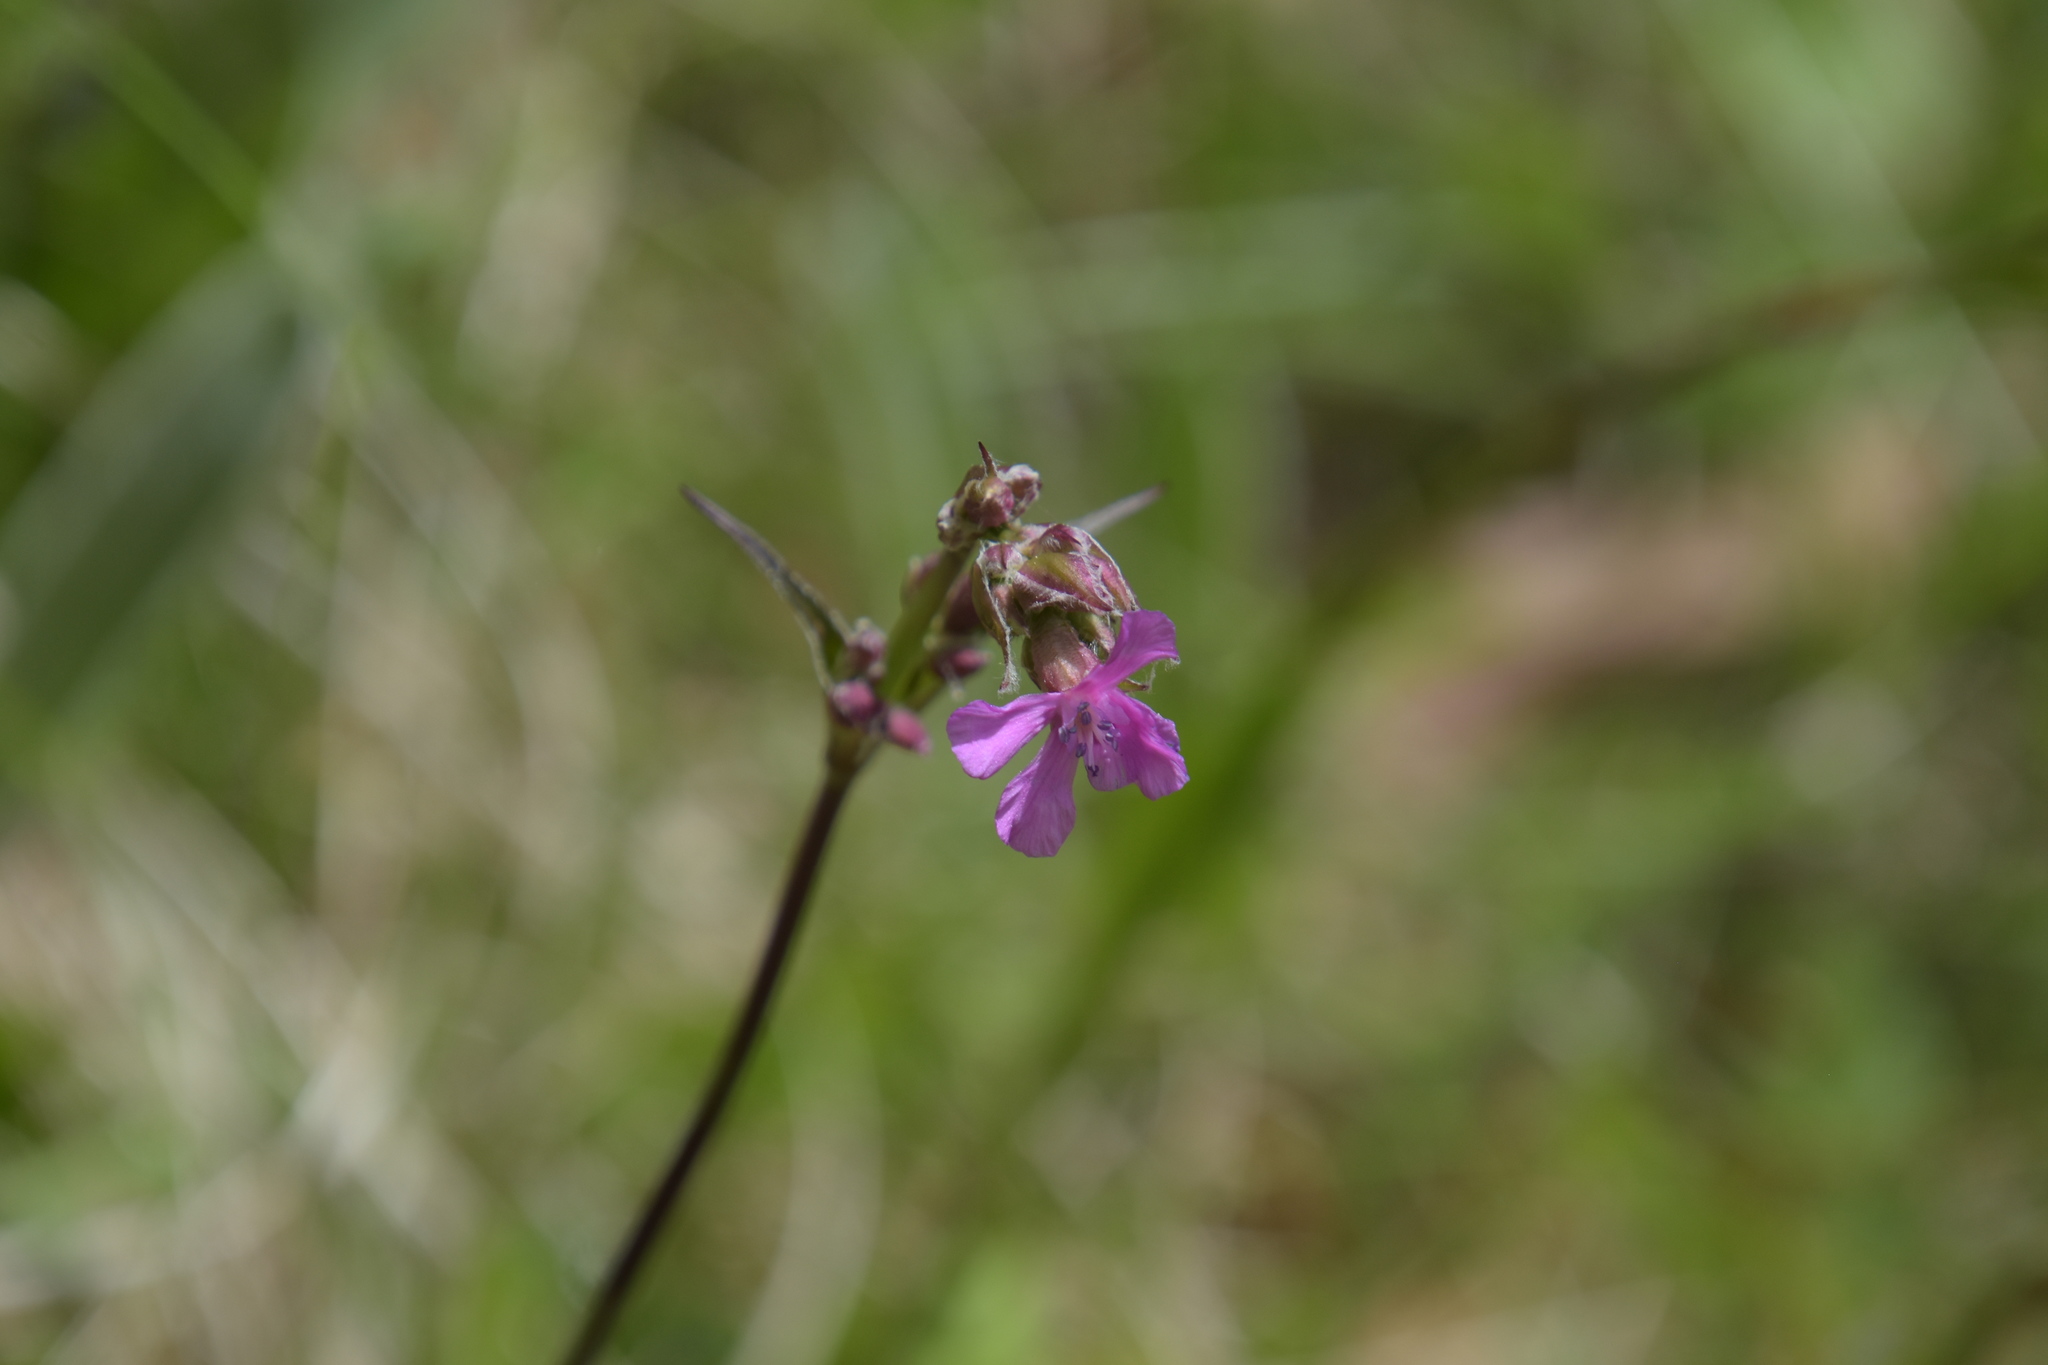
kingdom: Plantae
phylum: Tracheophyta
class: Magnoliopsida
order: Caryophyllales
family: Caryophyllaceae
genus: Viscaria
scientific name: Viscaria vulgaris
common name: Clammy campion
